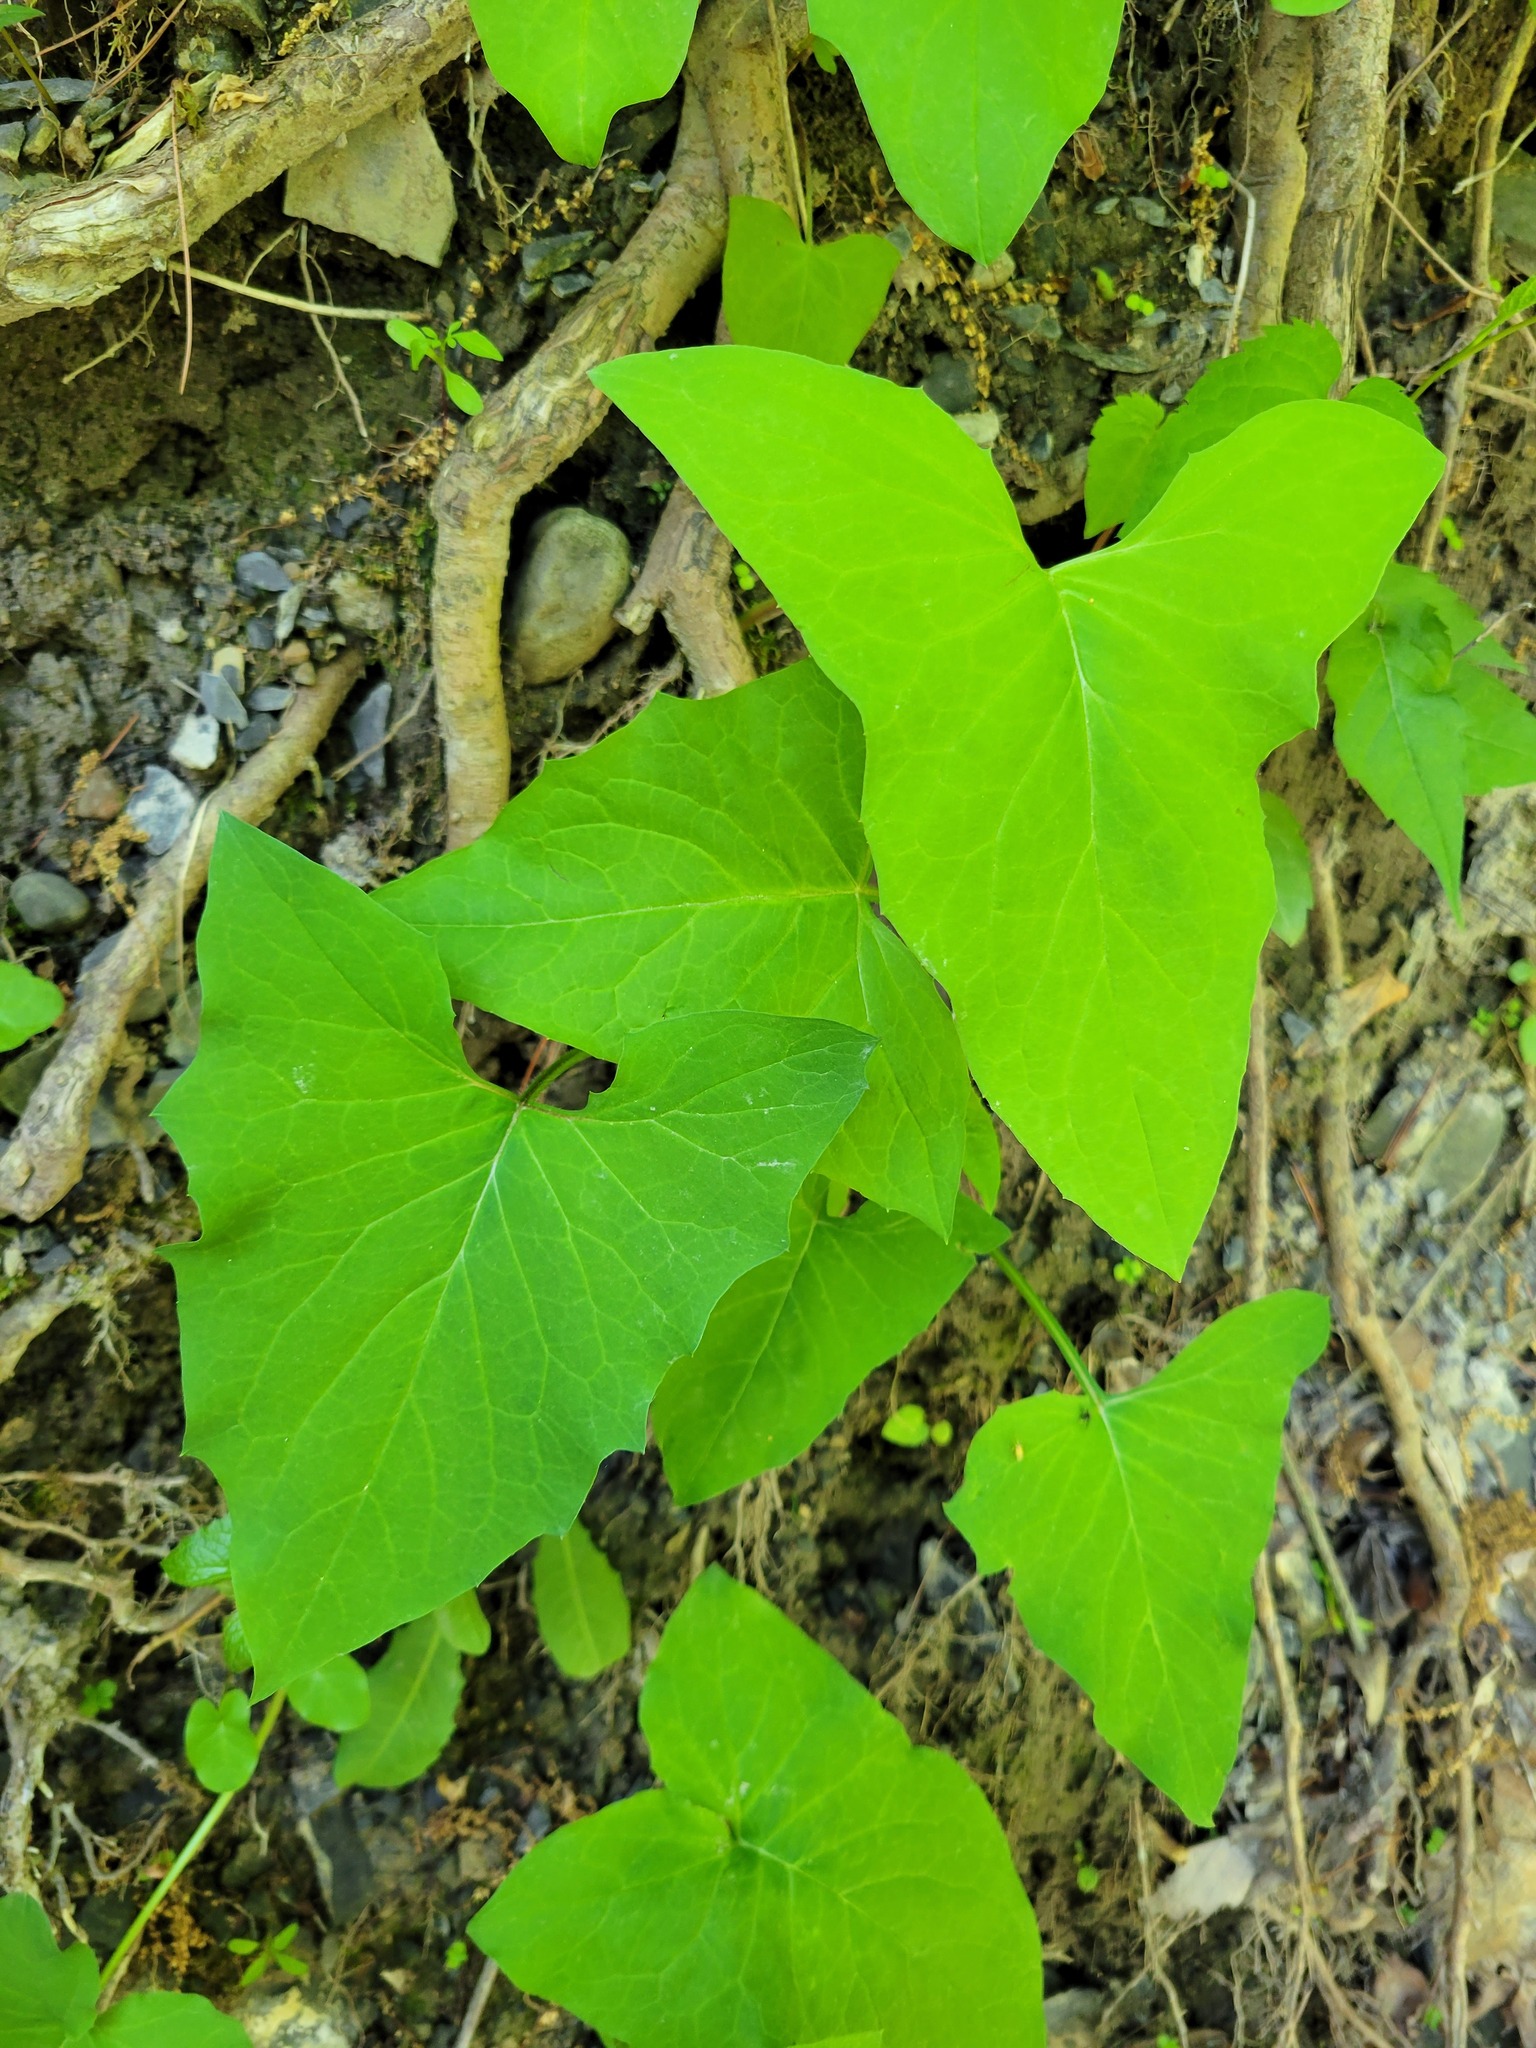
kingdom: Plantae
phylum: Tracheophyta
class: Magnoliopsida
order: Asterales
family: Asteraceae
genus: Nabalus
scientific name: Nabalus
